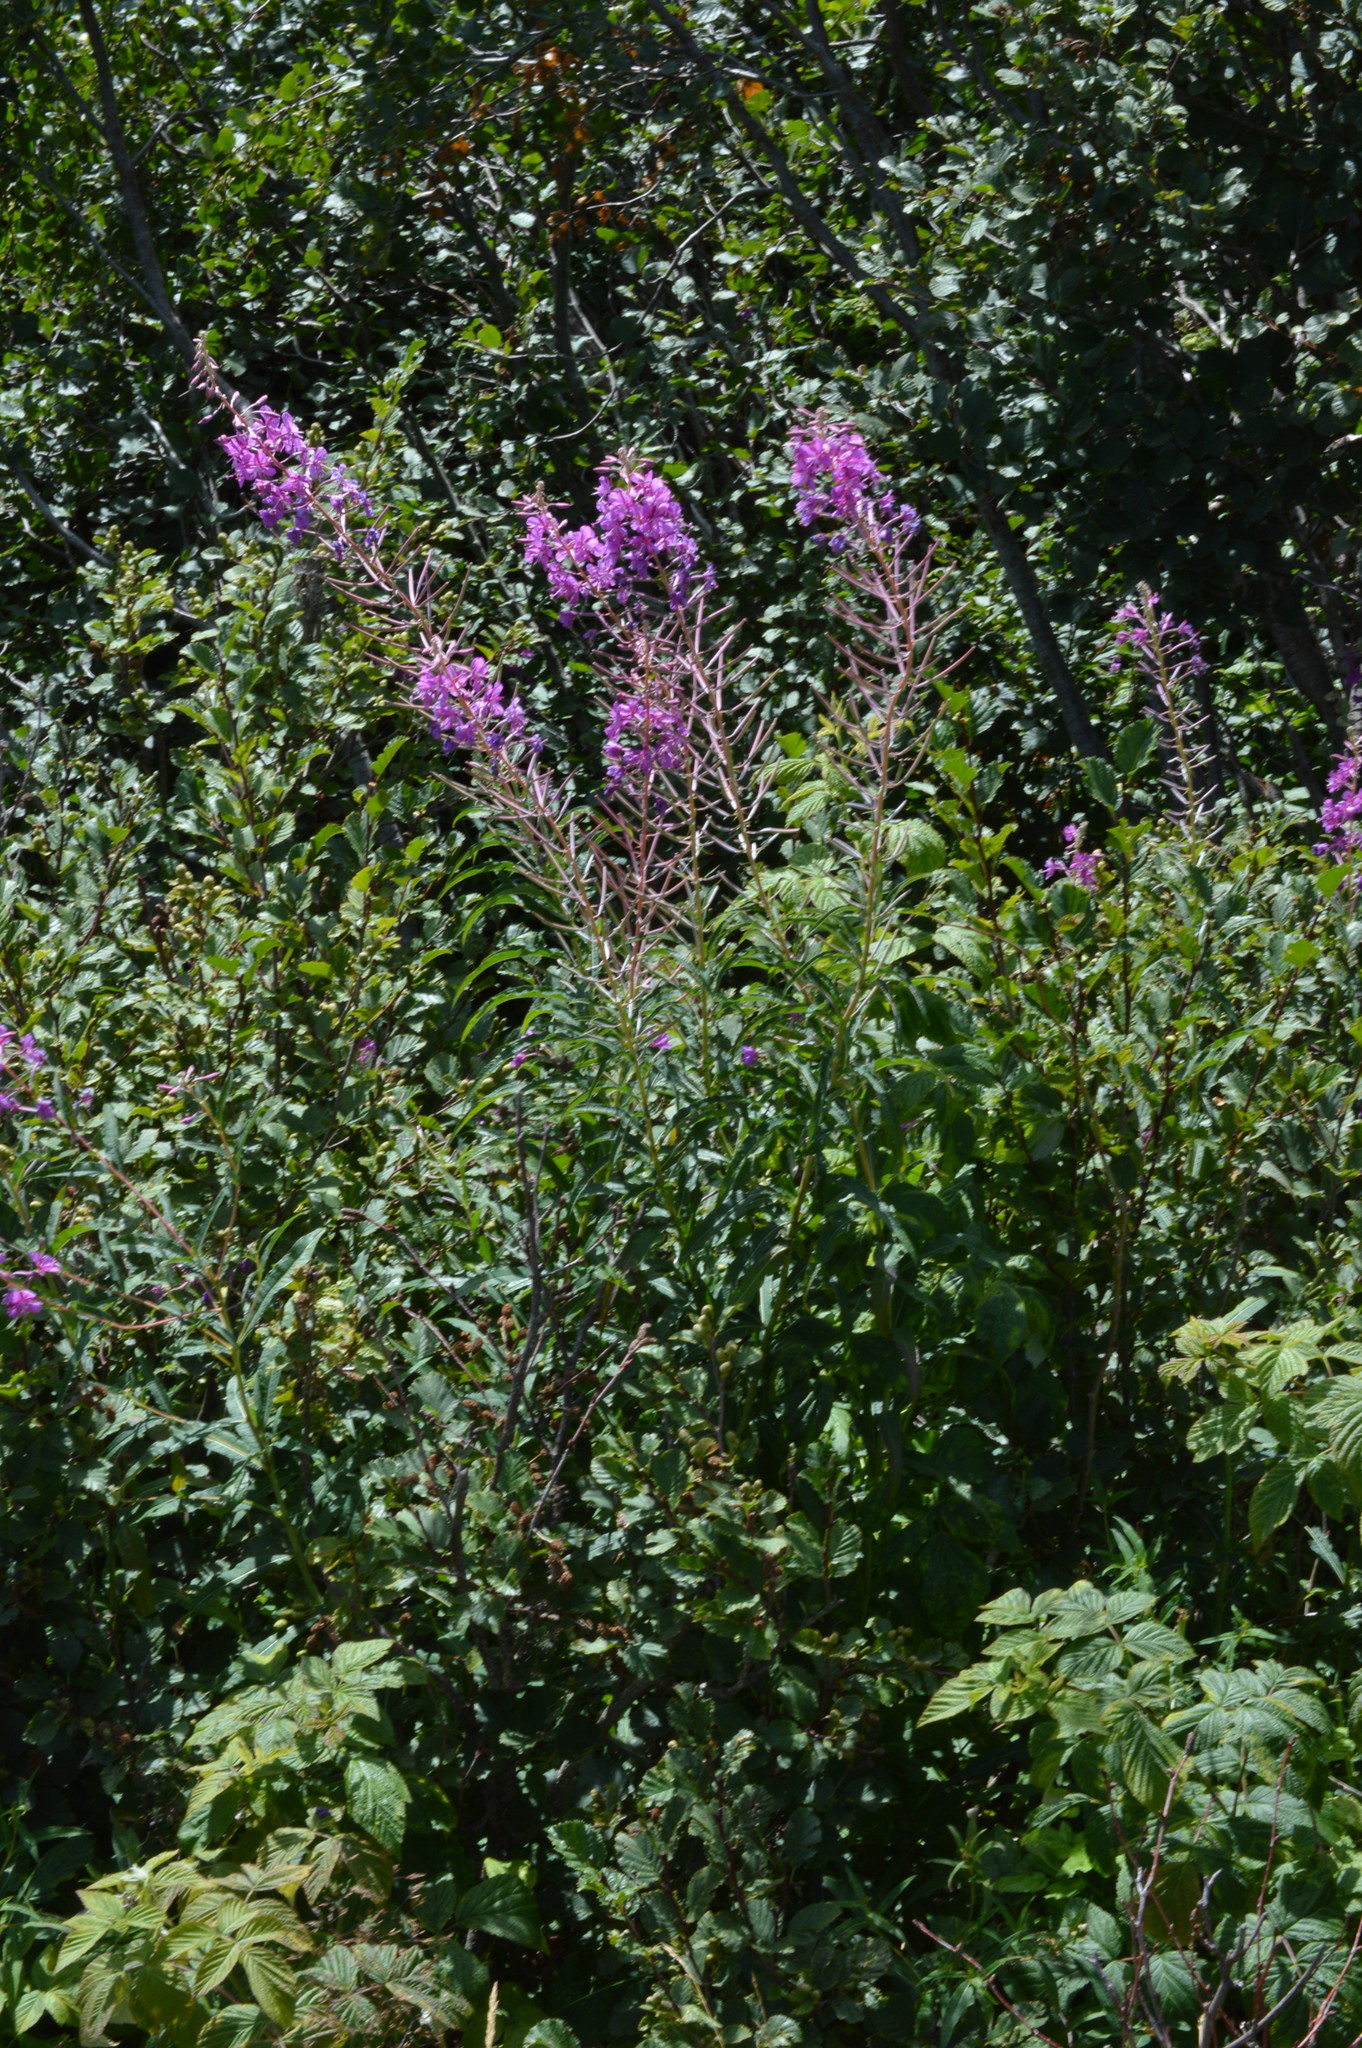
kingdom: Plantae
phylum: Tracheophyta
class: Magnoliopsida
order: Myrtales
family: Onagraceae
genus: Chamaenerion
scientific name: Chamaenerion angustifolium
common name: Fireweed
